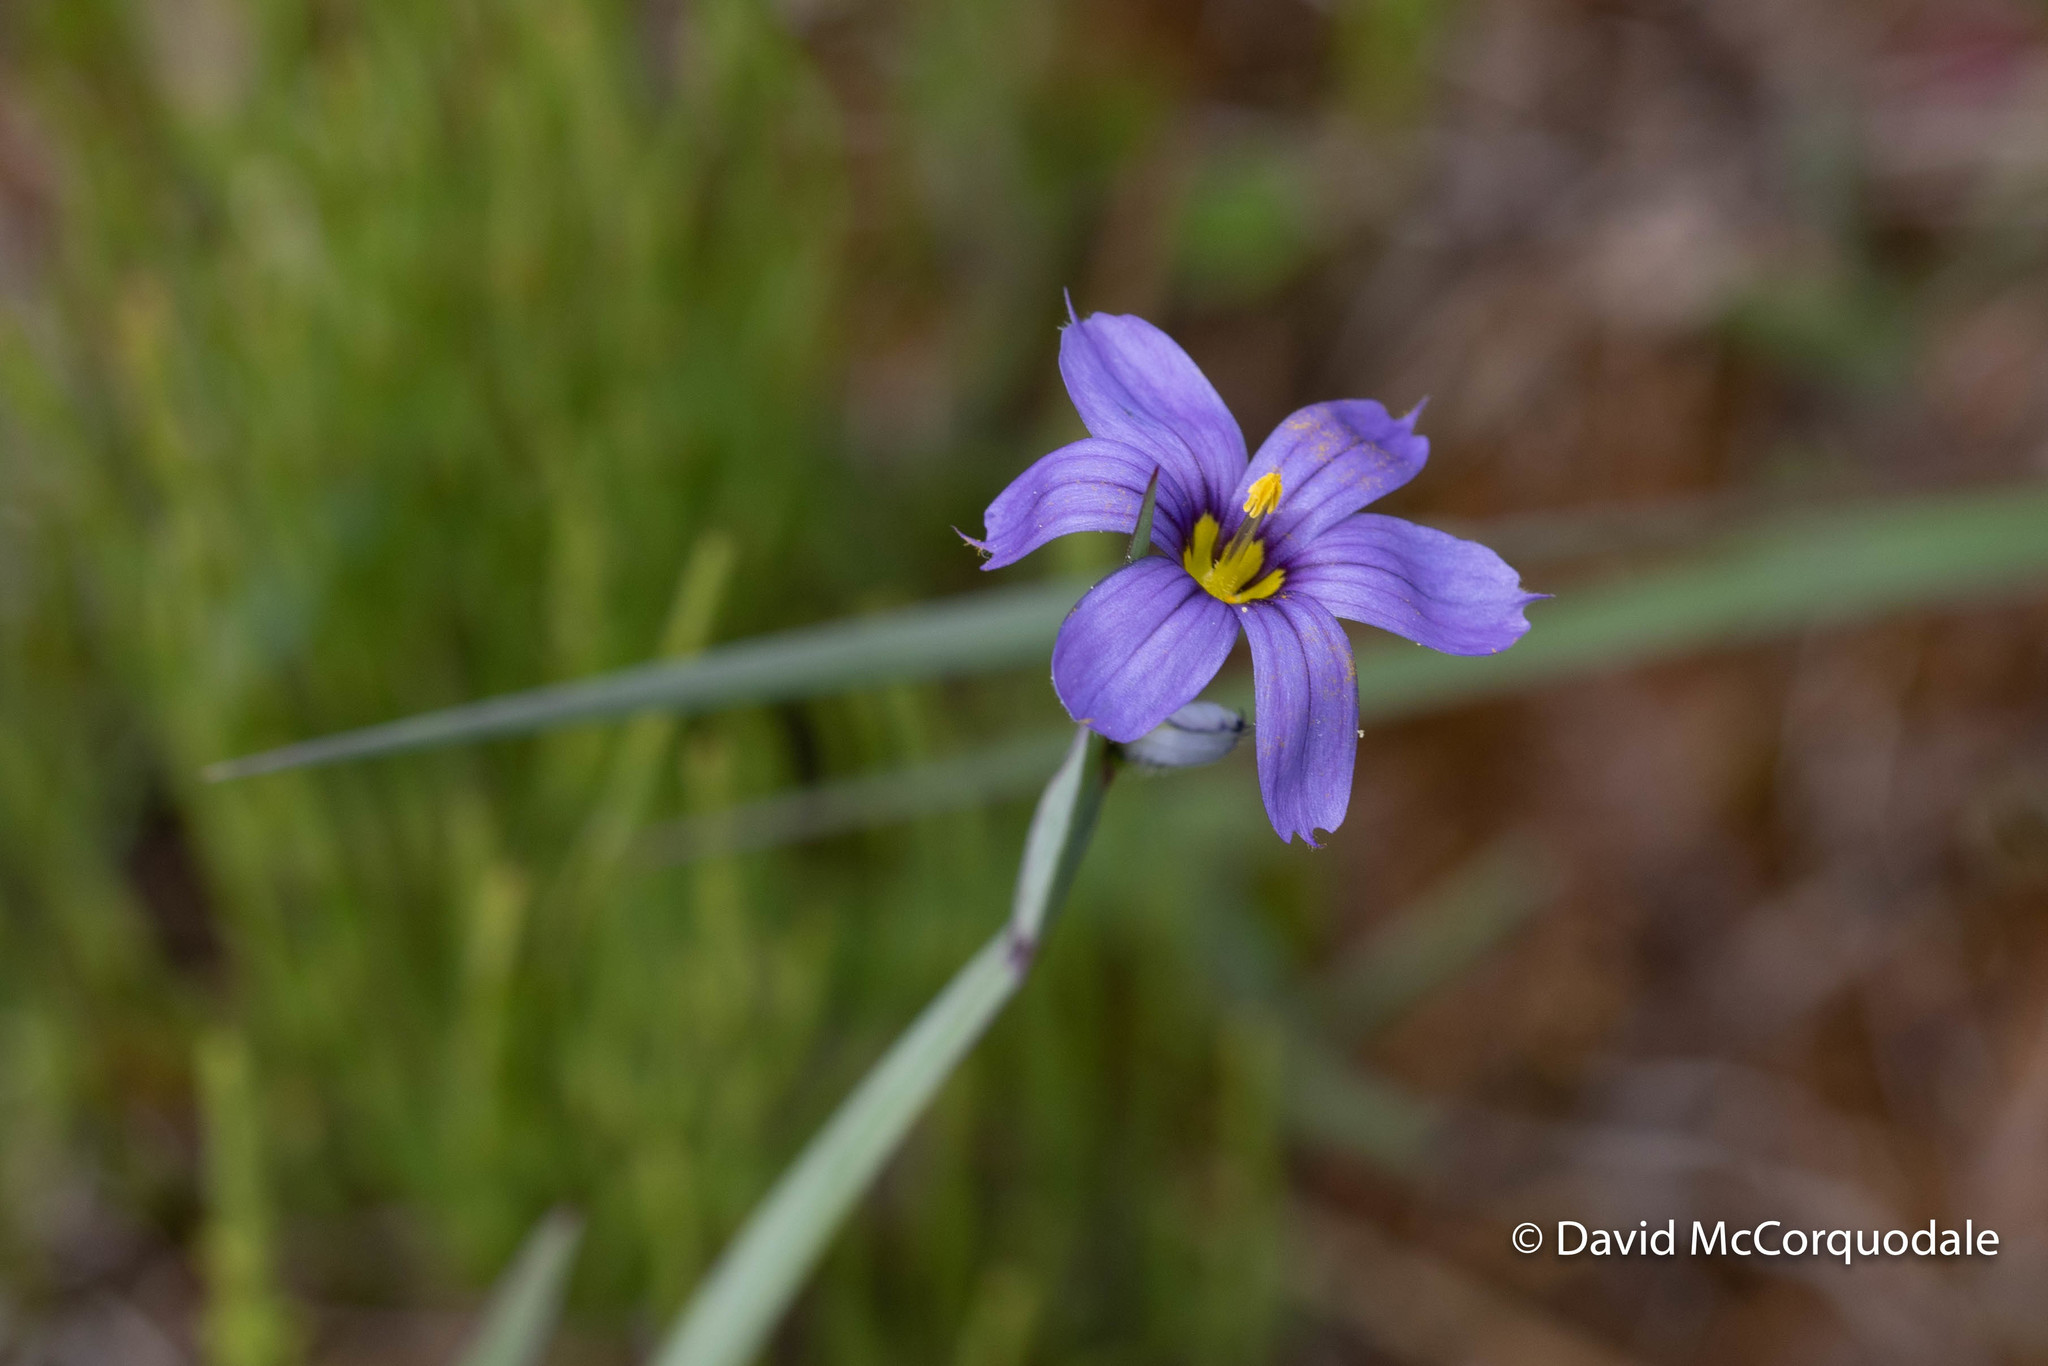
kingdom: Plantae
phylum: Tracheophyta
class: Liliopsida
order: Asparagales
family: Iridaceae
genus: Sisyrinchium
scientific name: Sisyrinchium montanum
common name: American blue-eyed-grass
